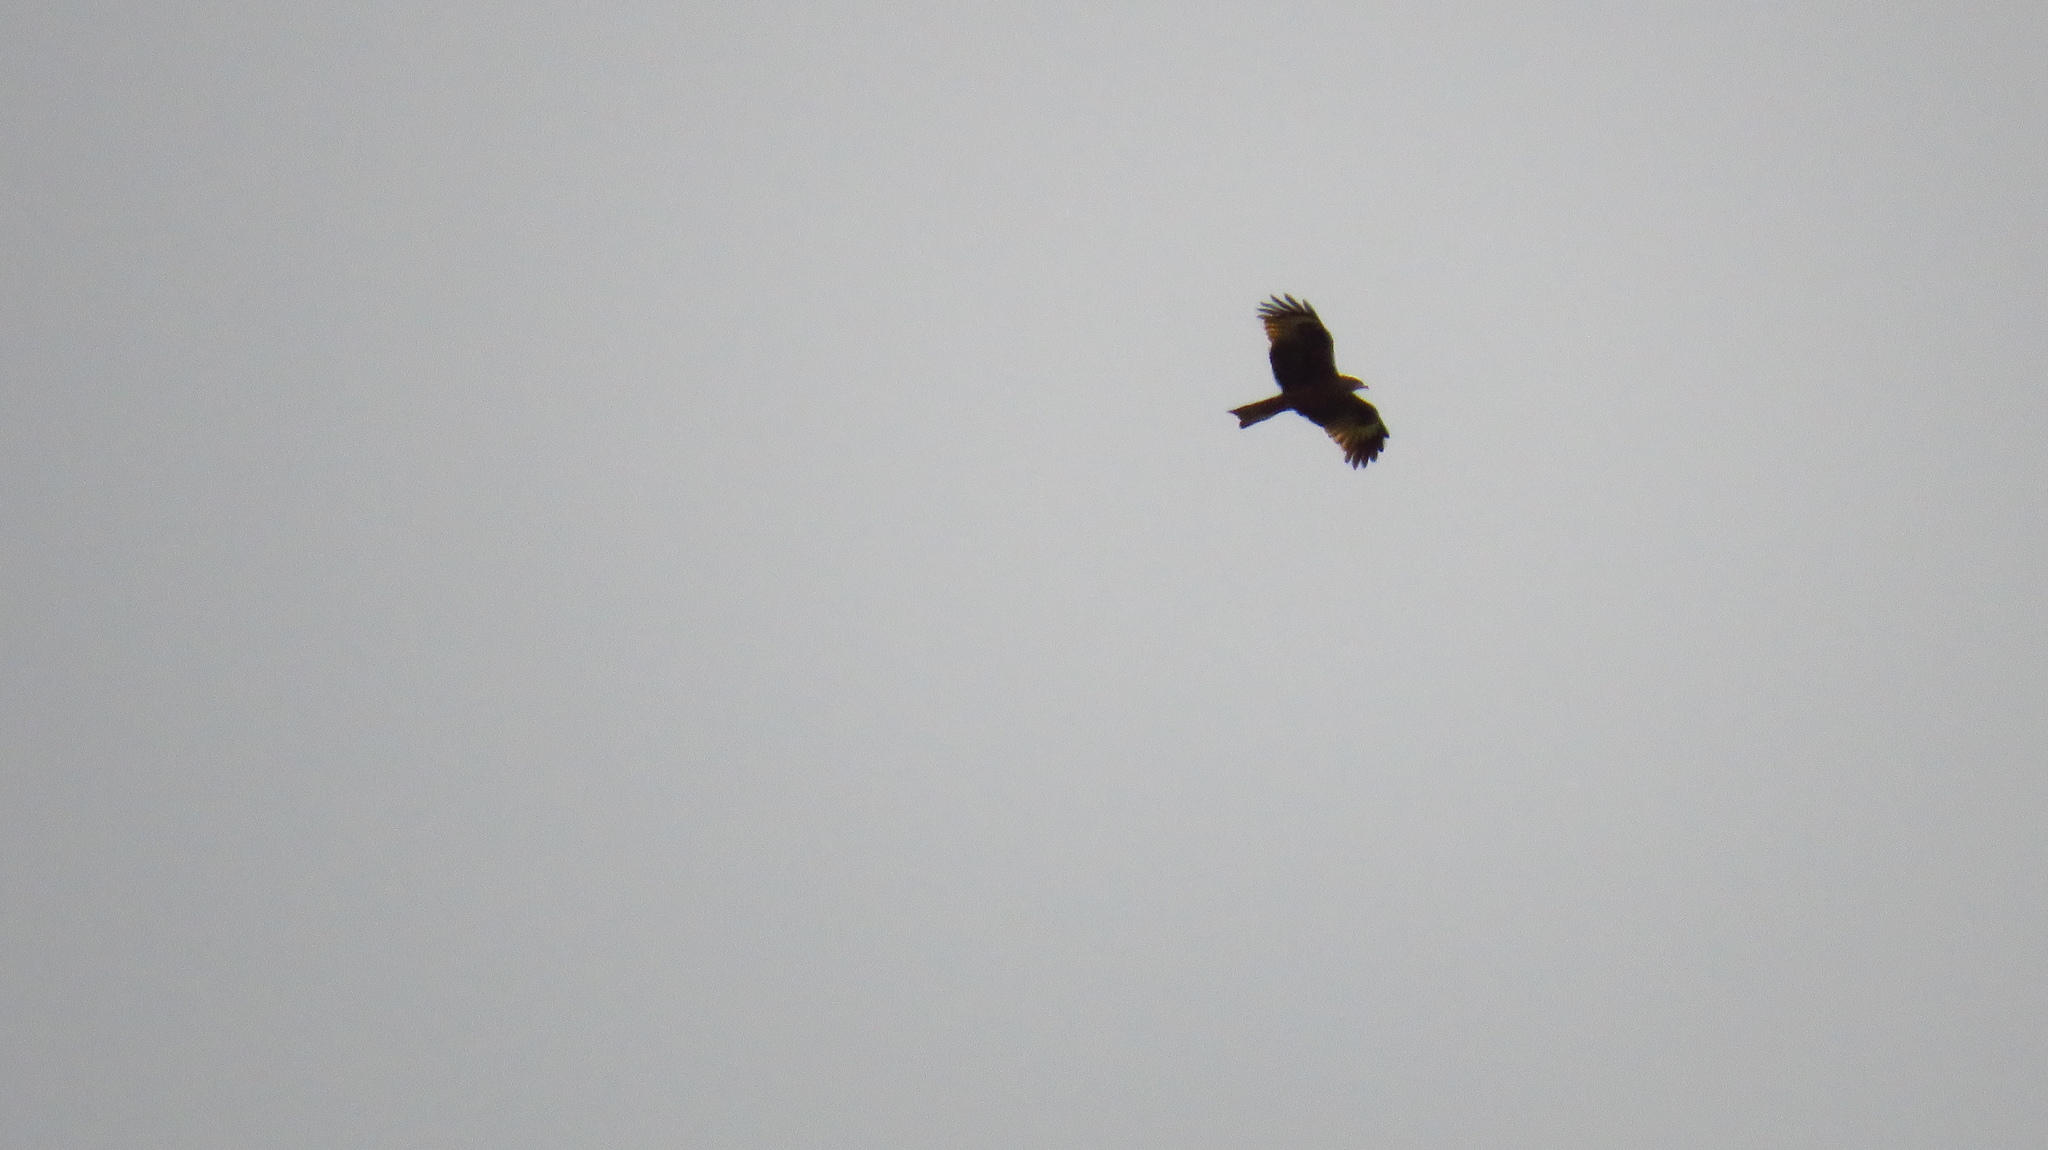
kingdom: Animalia
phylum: Chordata
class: Aves
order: Accipitriformes
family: Accipitridae
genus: Milvus
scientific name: Milvus migrans
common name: Black kite
